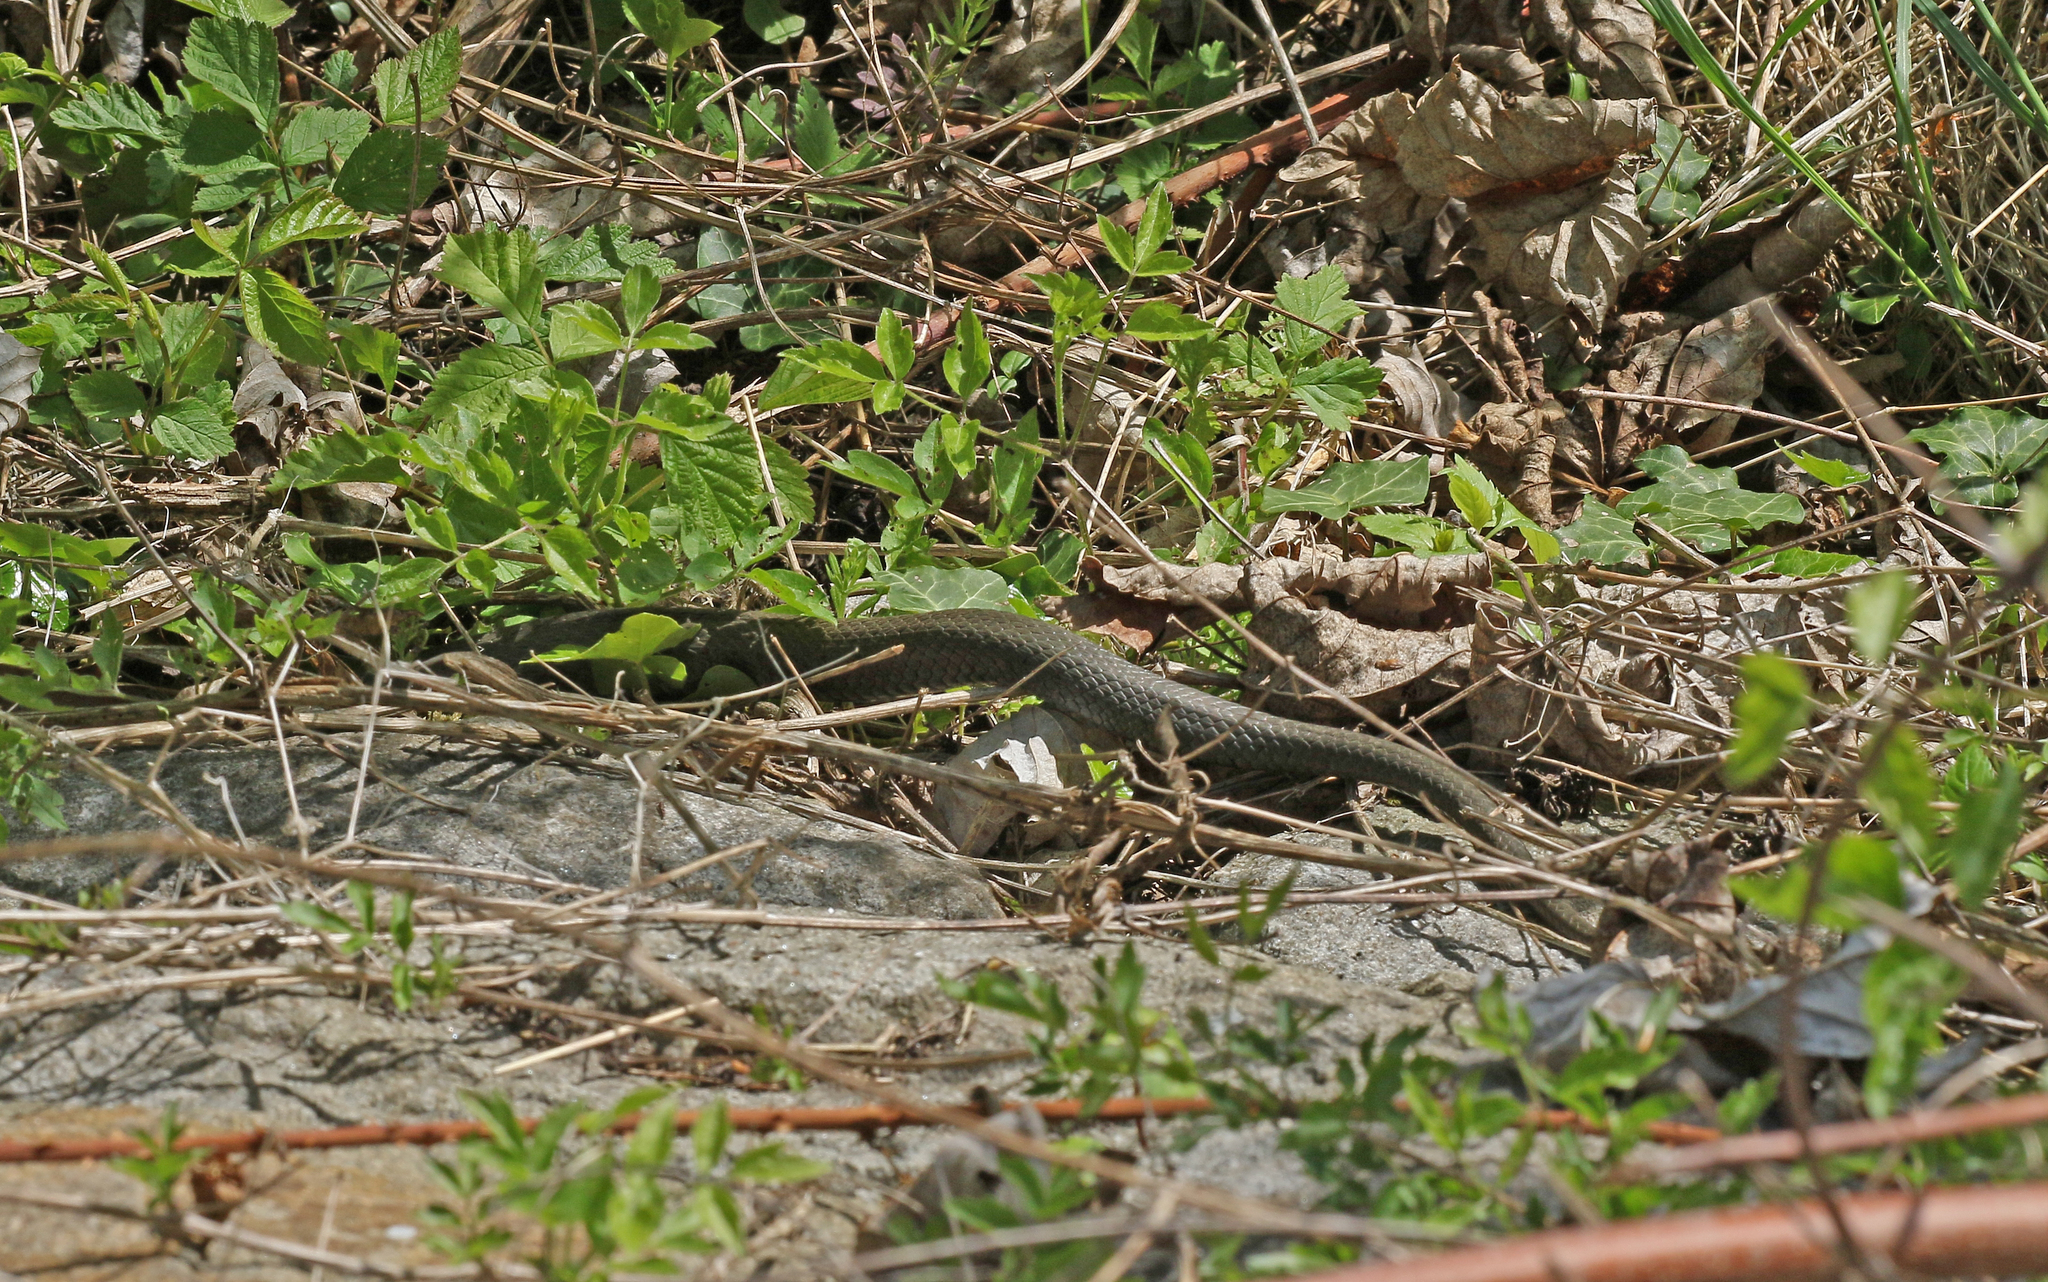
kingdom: Animalia
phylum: Chordata
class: Squamata
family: Colubridae
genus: Zamenis
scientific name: Zamenis longissimus
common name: Aesculapean snake
